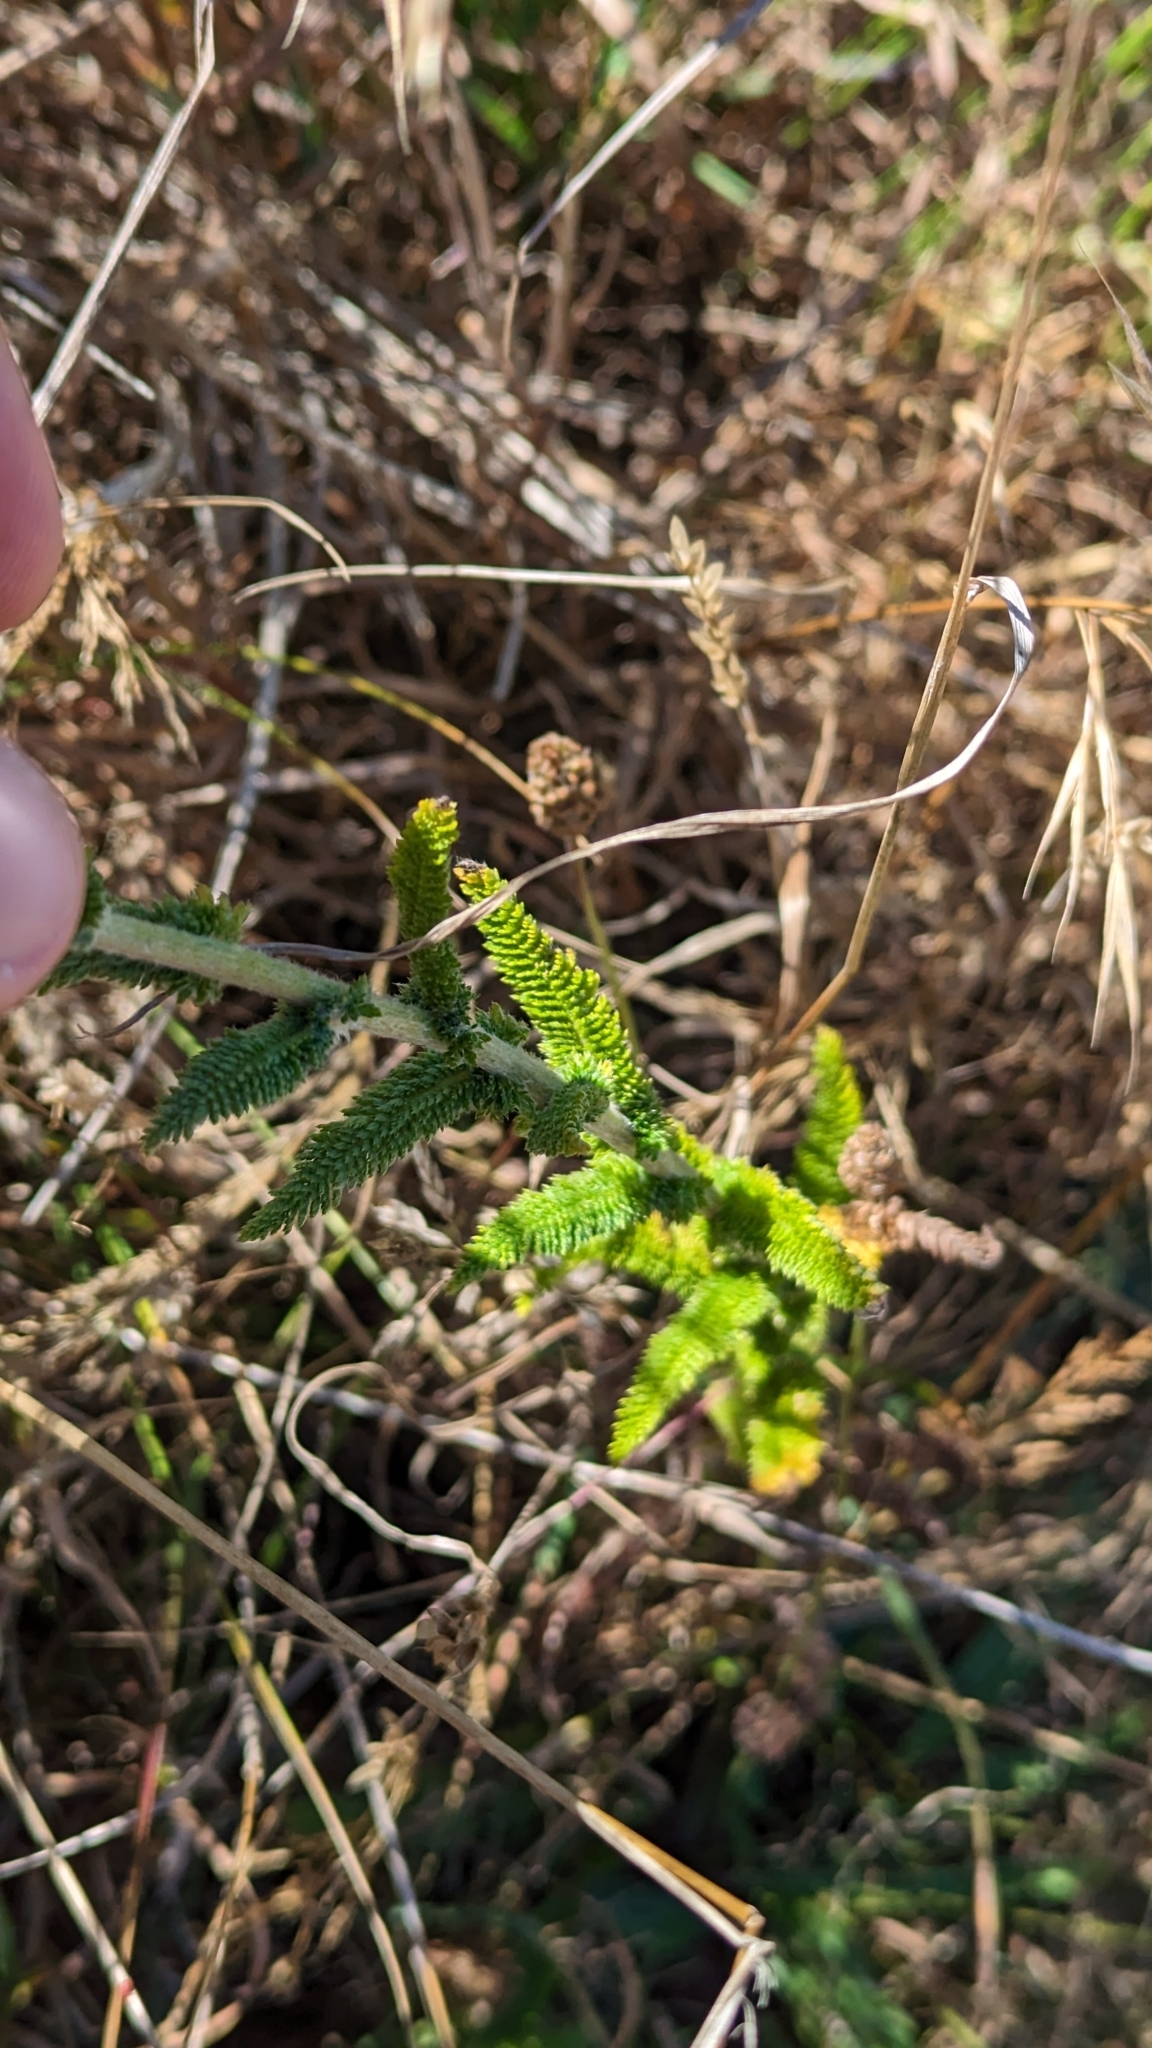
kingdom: Plantae
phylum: Tracheophyta
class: Magnoliopsida
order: Asterales
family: Asteraceae
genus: Achillea
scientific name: Achillea millefolium
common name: Yarrow
